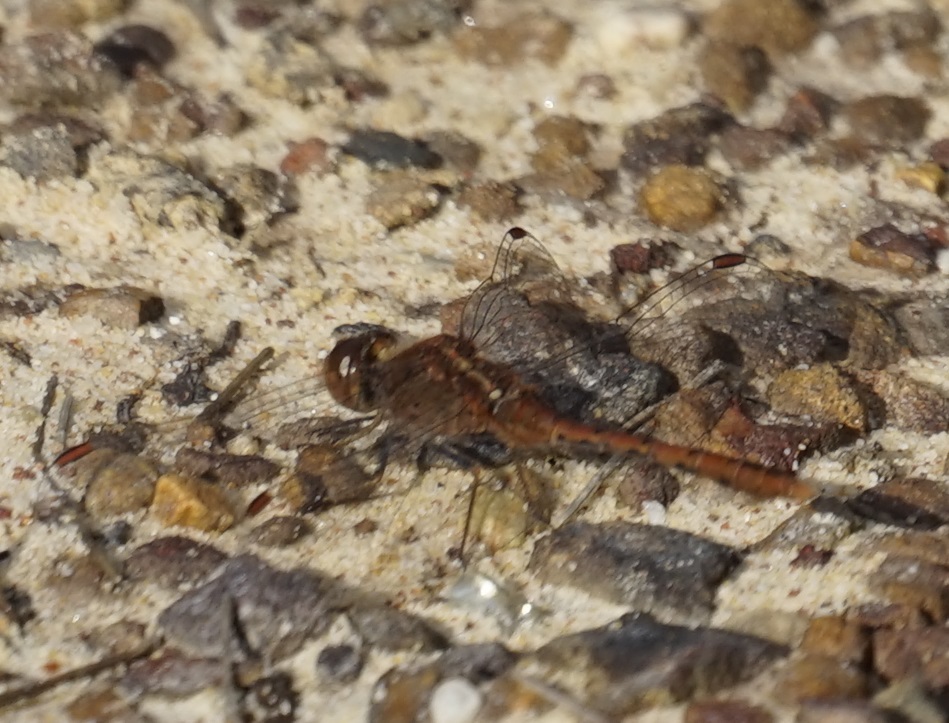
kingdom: Animalia
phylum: Arthropoda
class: Insecta
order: Odonata
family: Libellulidae
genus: Diplacodes
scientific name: Diplacodes bipunctata
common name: Red percher dragonfly
